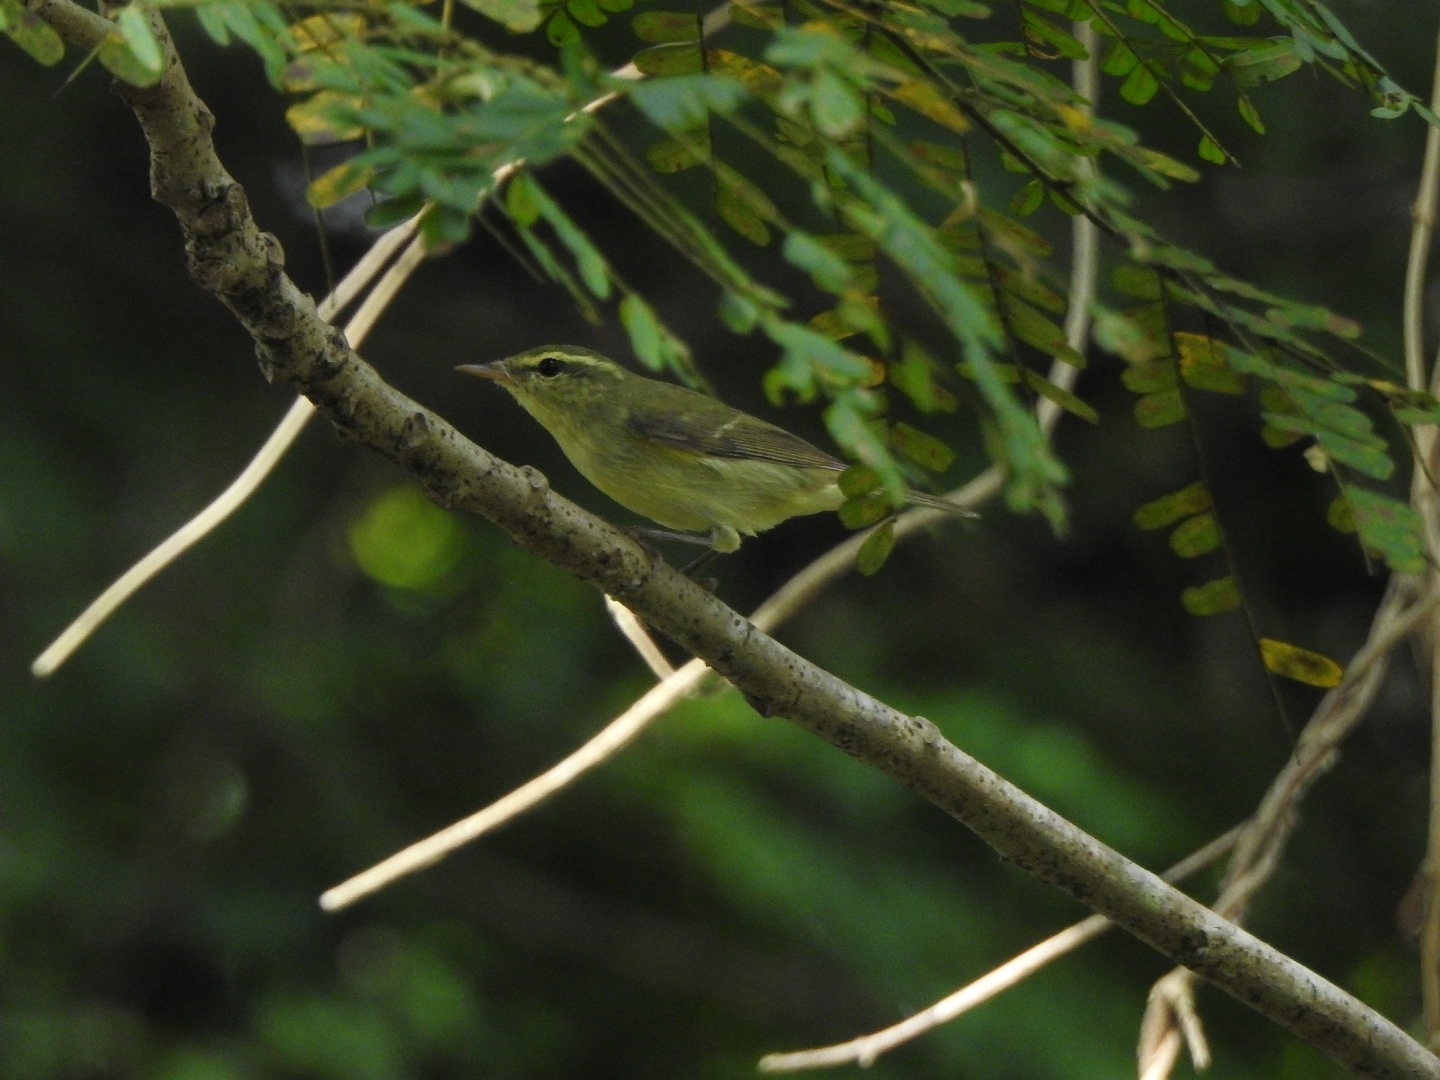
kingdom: Animalia
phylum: Chordata
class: Aves
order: Passeriformes
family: Phylloscopidae
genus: Phylloscopus
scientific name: Phylloscopus nitidus
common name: Green warbler
